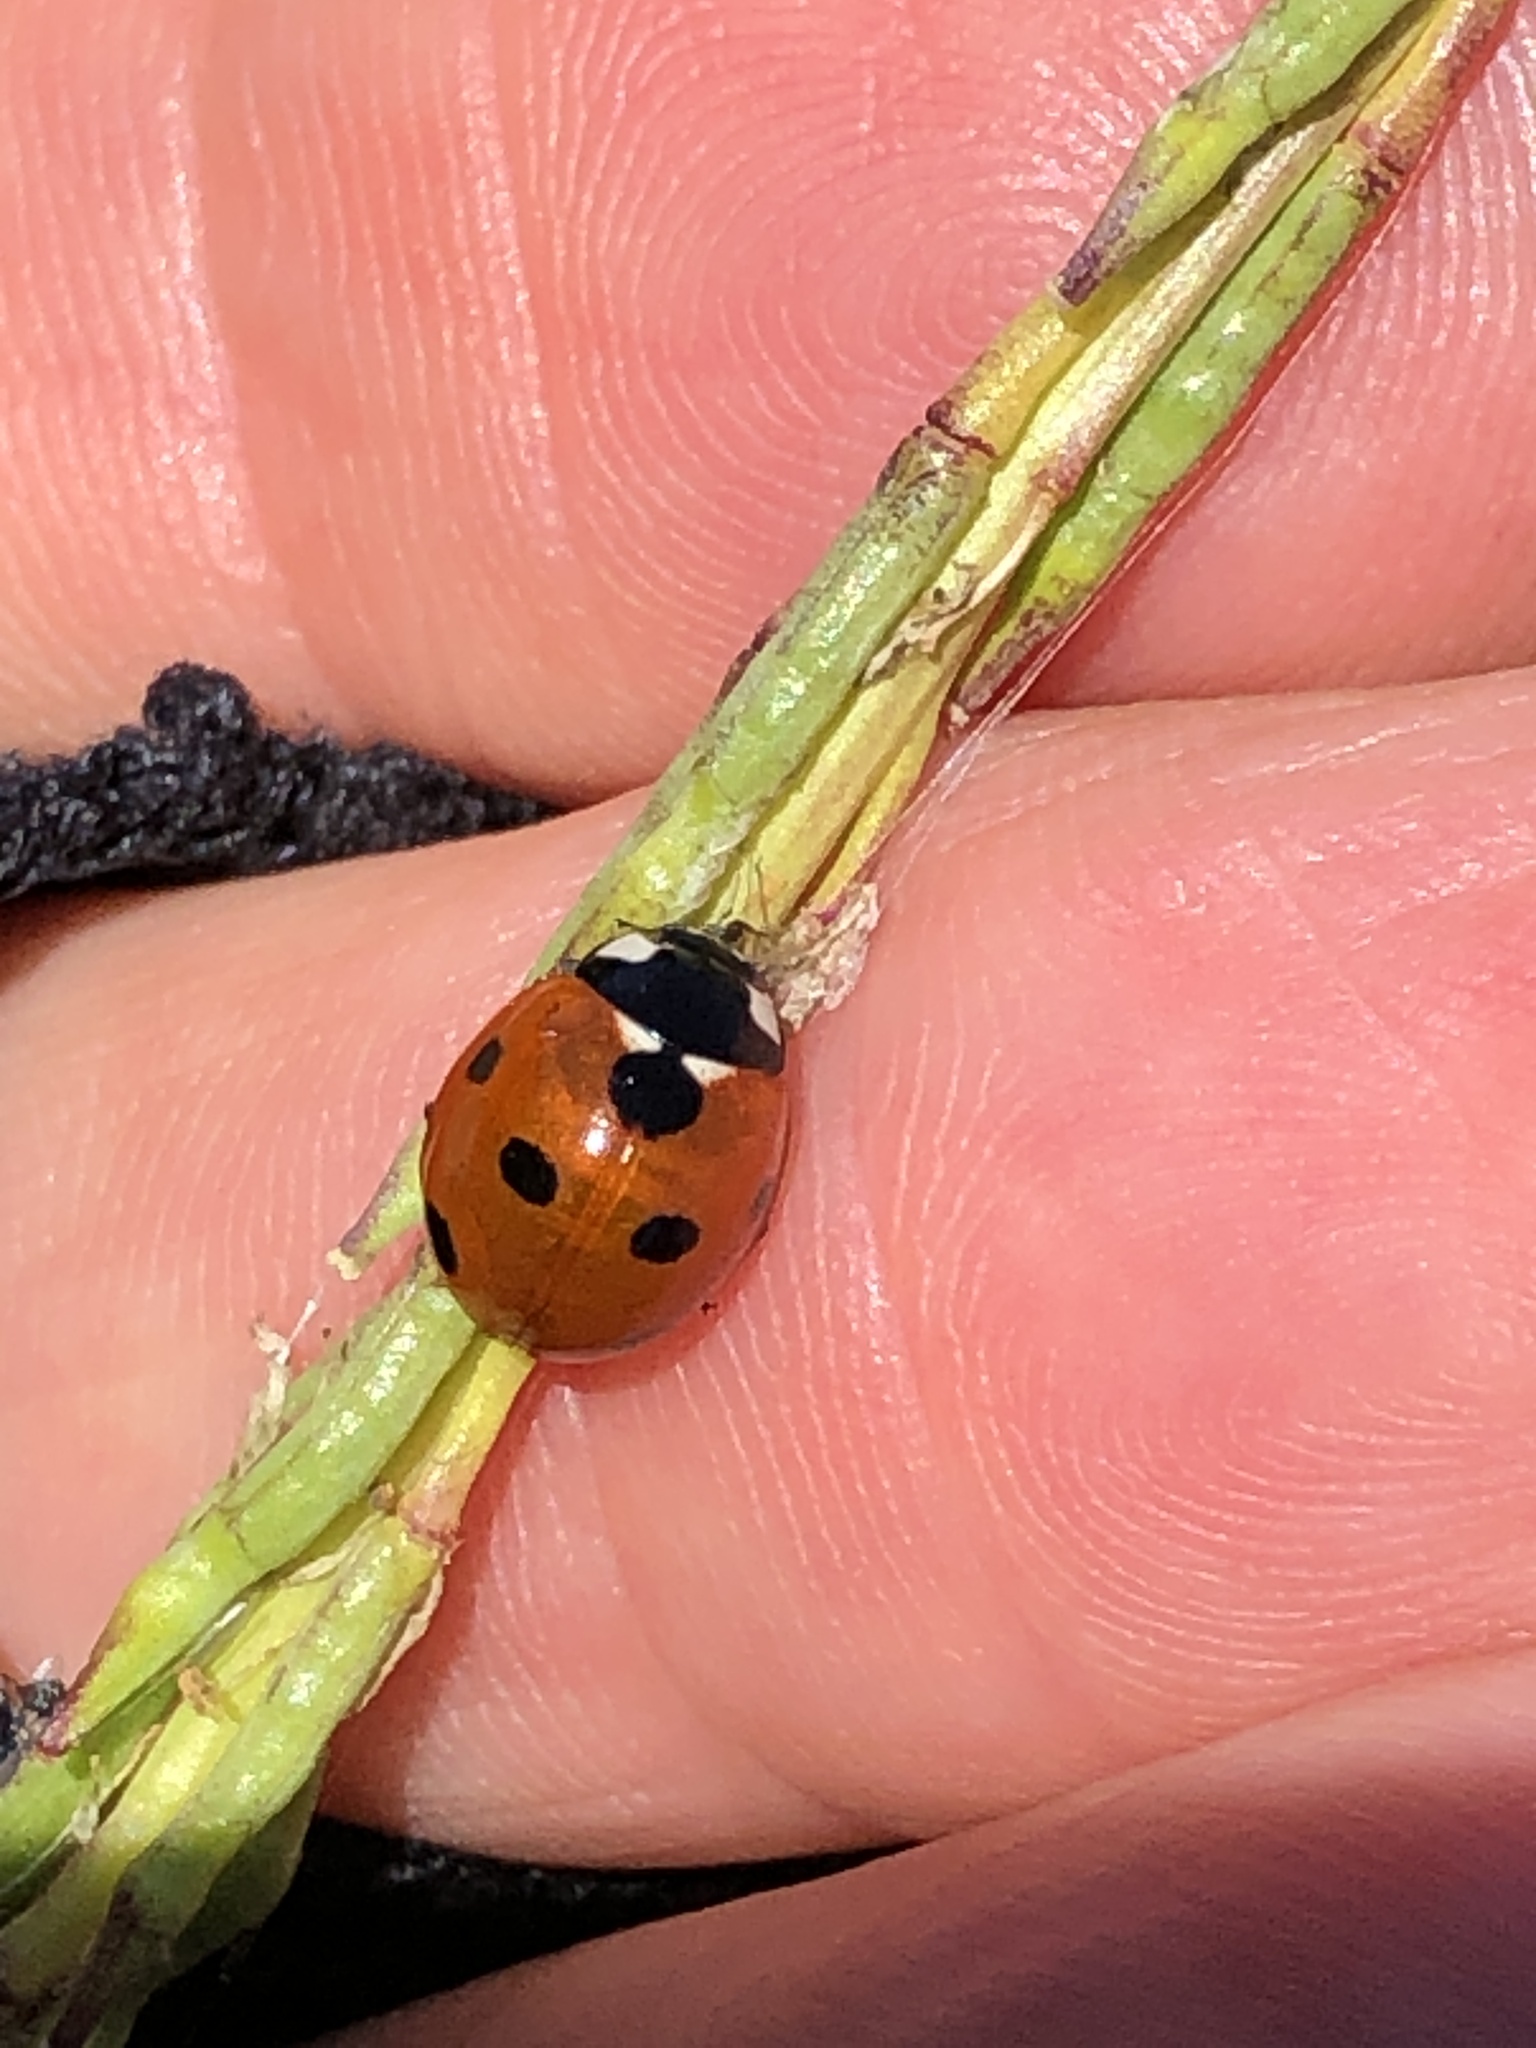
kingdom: Animalia
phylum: Arthropoda
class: Insecta
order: Coleoptera
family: Coccinellidae
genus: Coccinella
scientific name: Coccinella septempunctata
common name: Sevenspotted lady beetle
